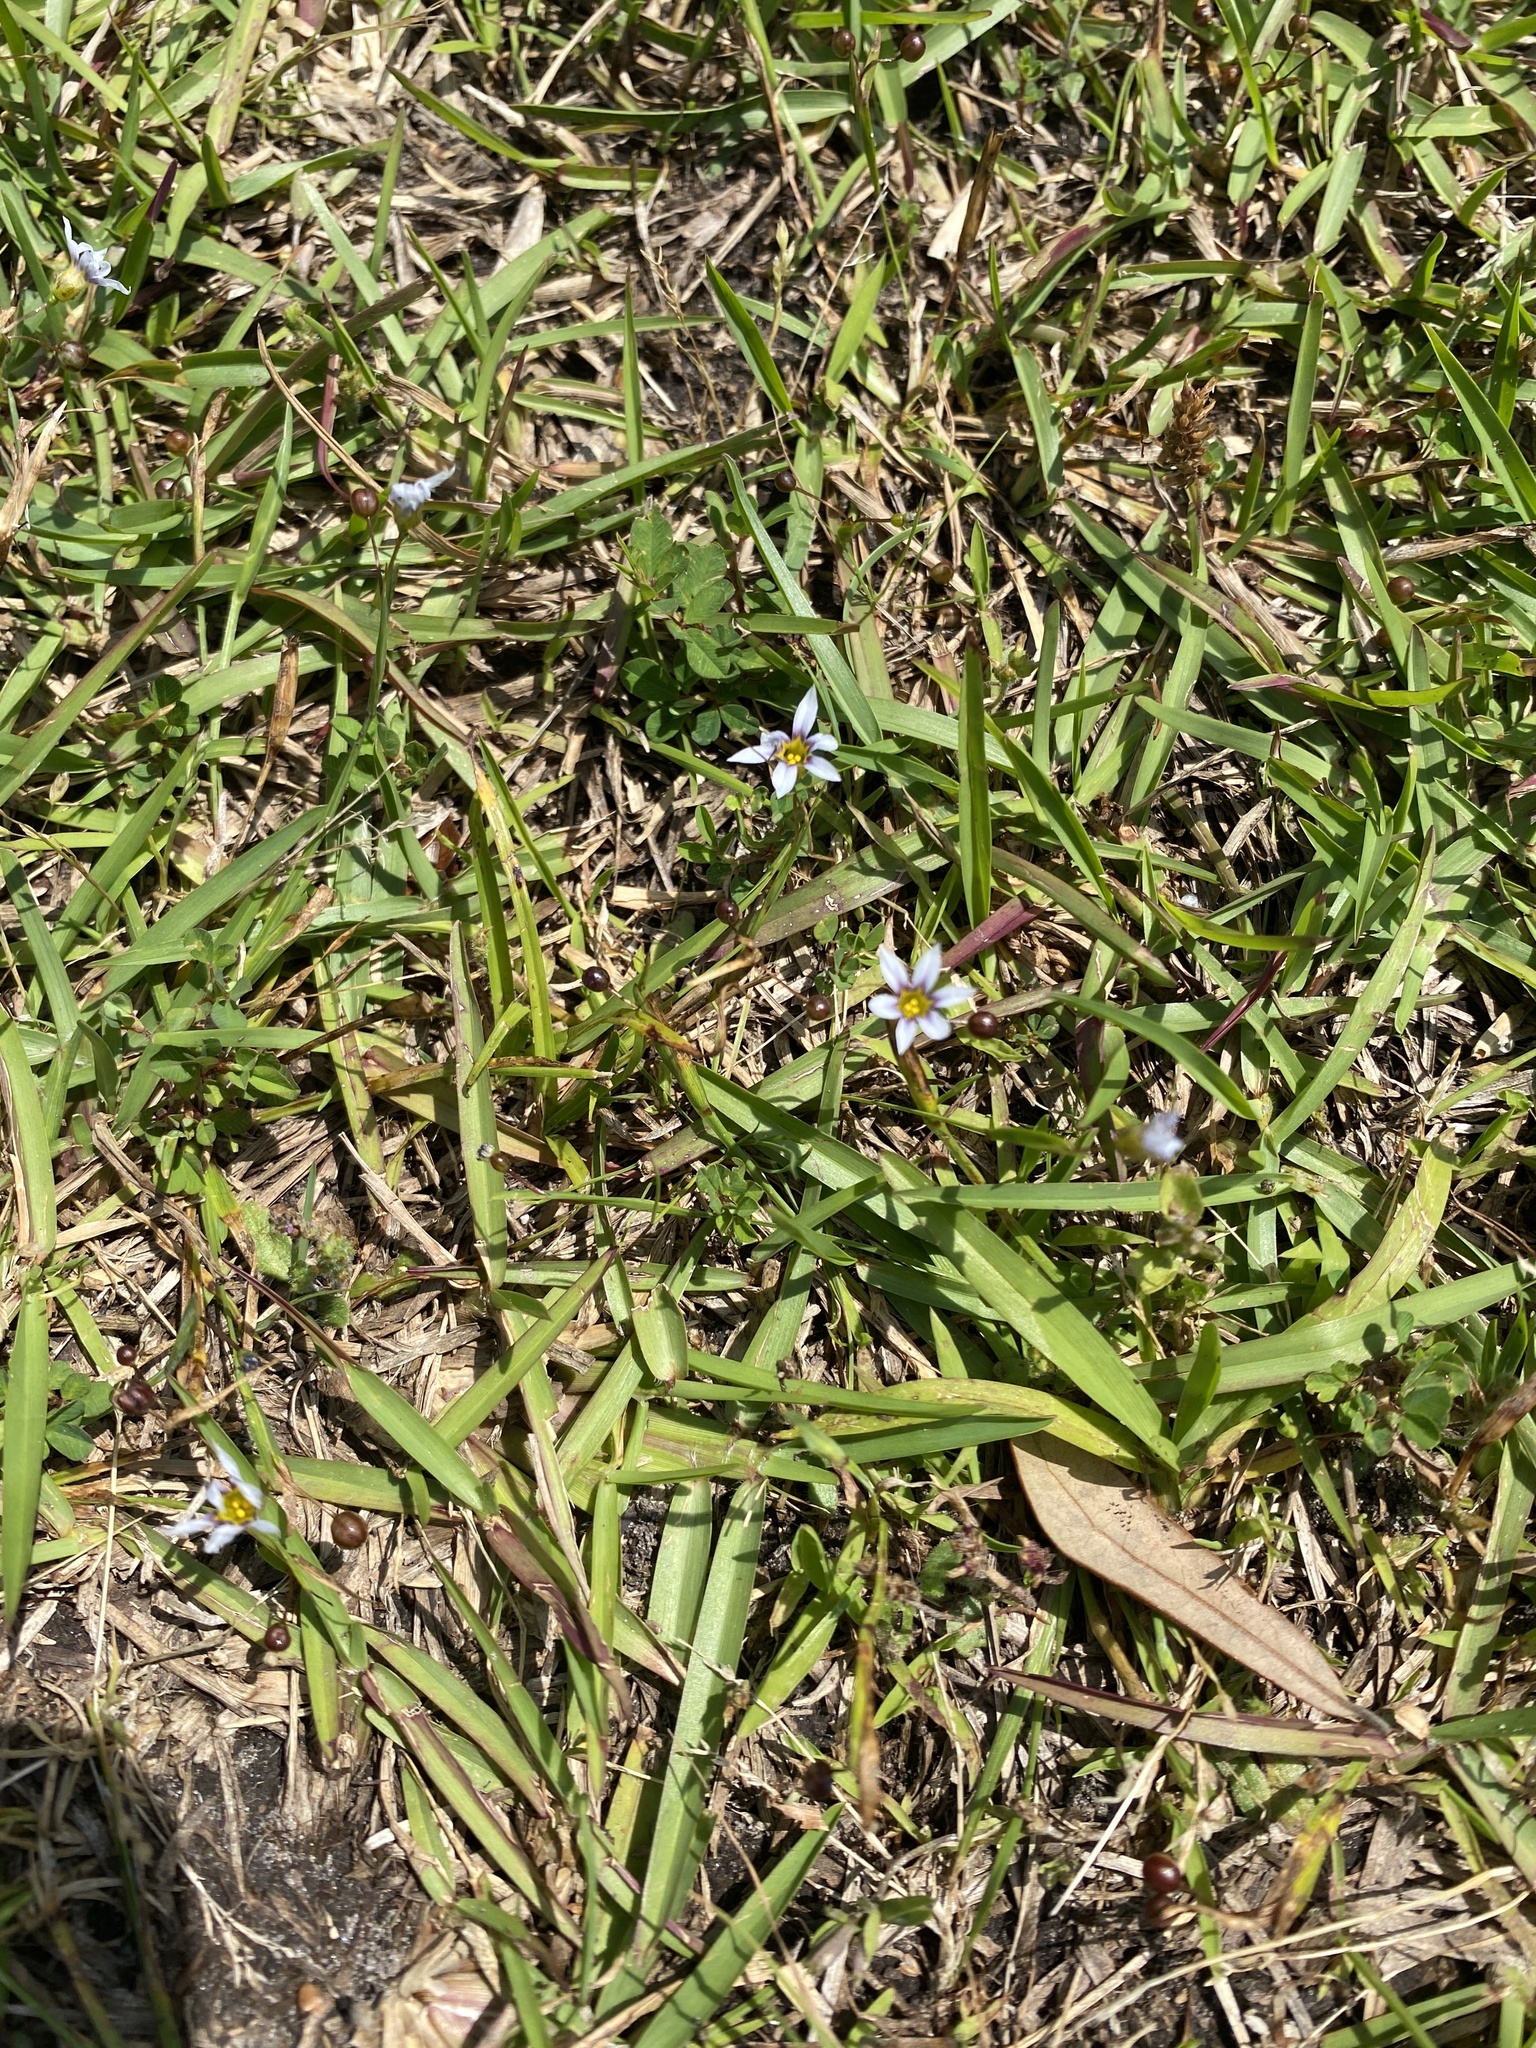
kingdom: Plantae
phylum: Tracheophyta
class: Liliopsida
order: Asparagales
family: Iridaceae
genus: Sisyrinchium
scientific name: Sisyrinchium micranthum
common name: Bermuda pigroot
